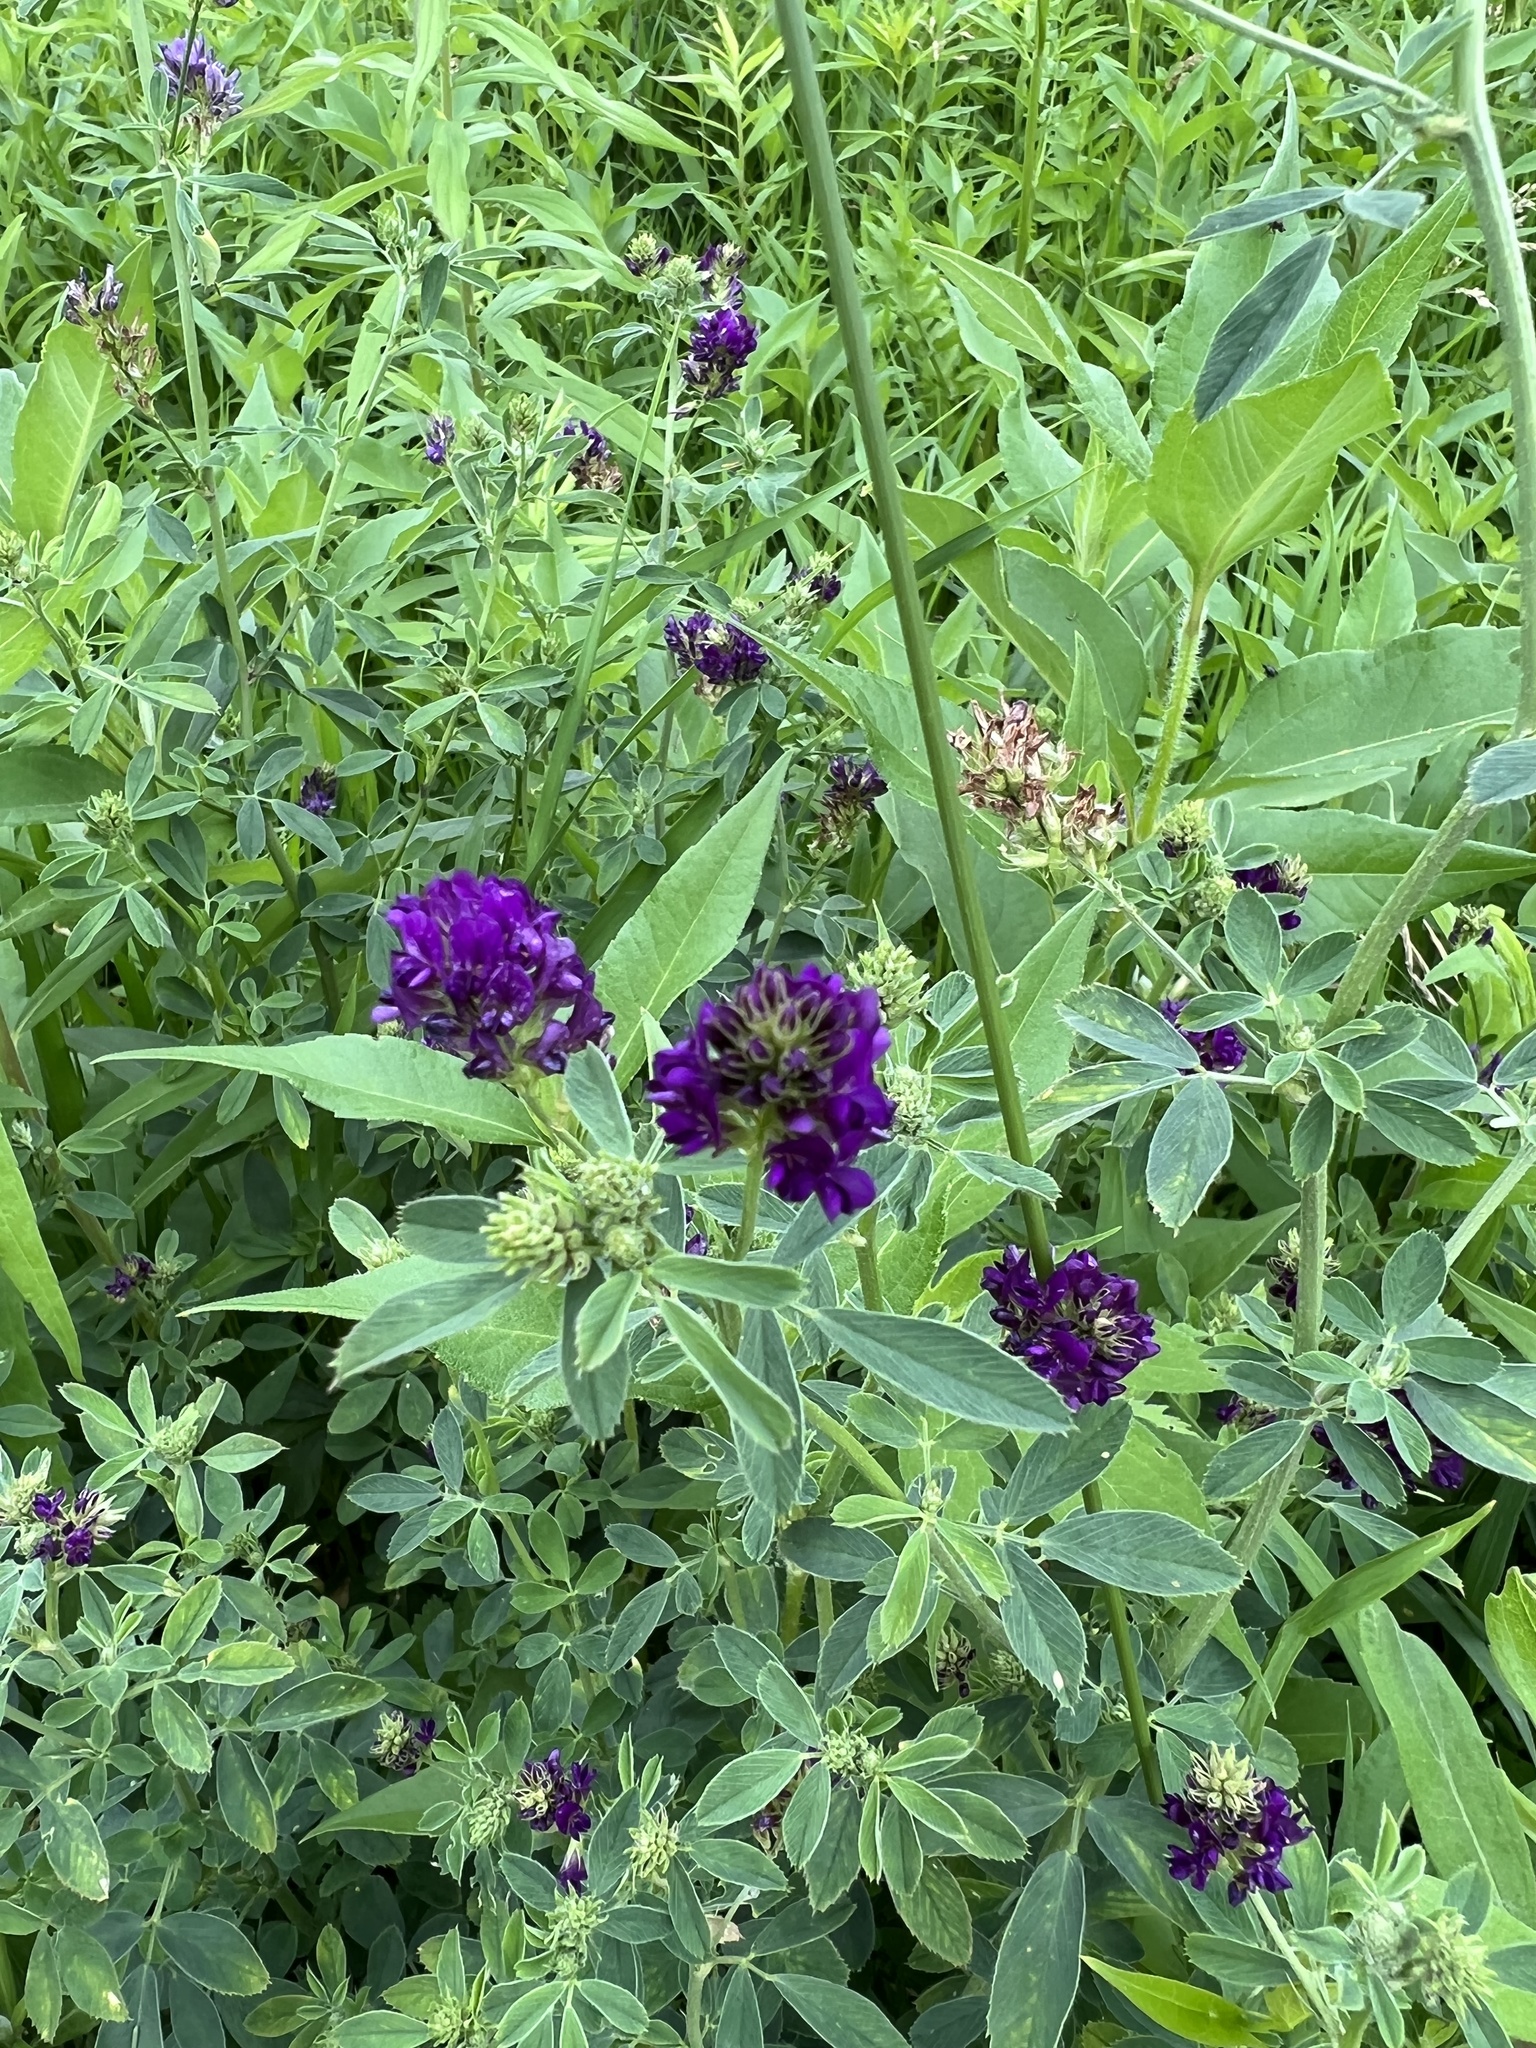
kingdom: Plantae
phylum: Tracheophyta
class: Magnoliopsida
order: Fabales
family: Fabaceae
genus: Medicago
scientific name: Medicago sativa
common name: Alfalfa
